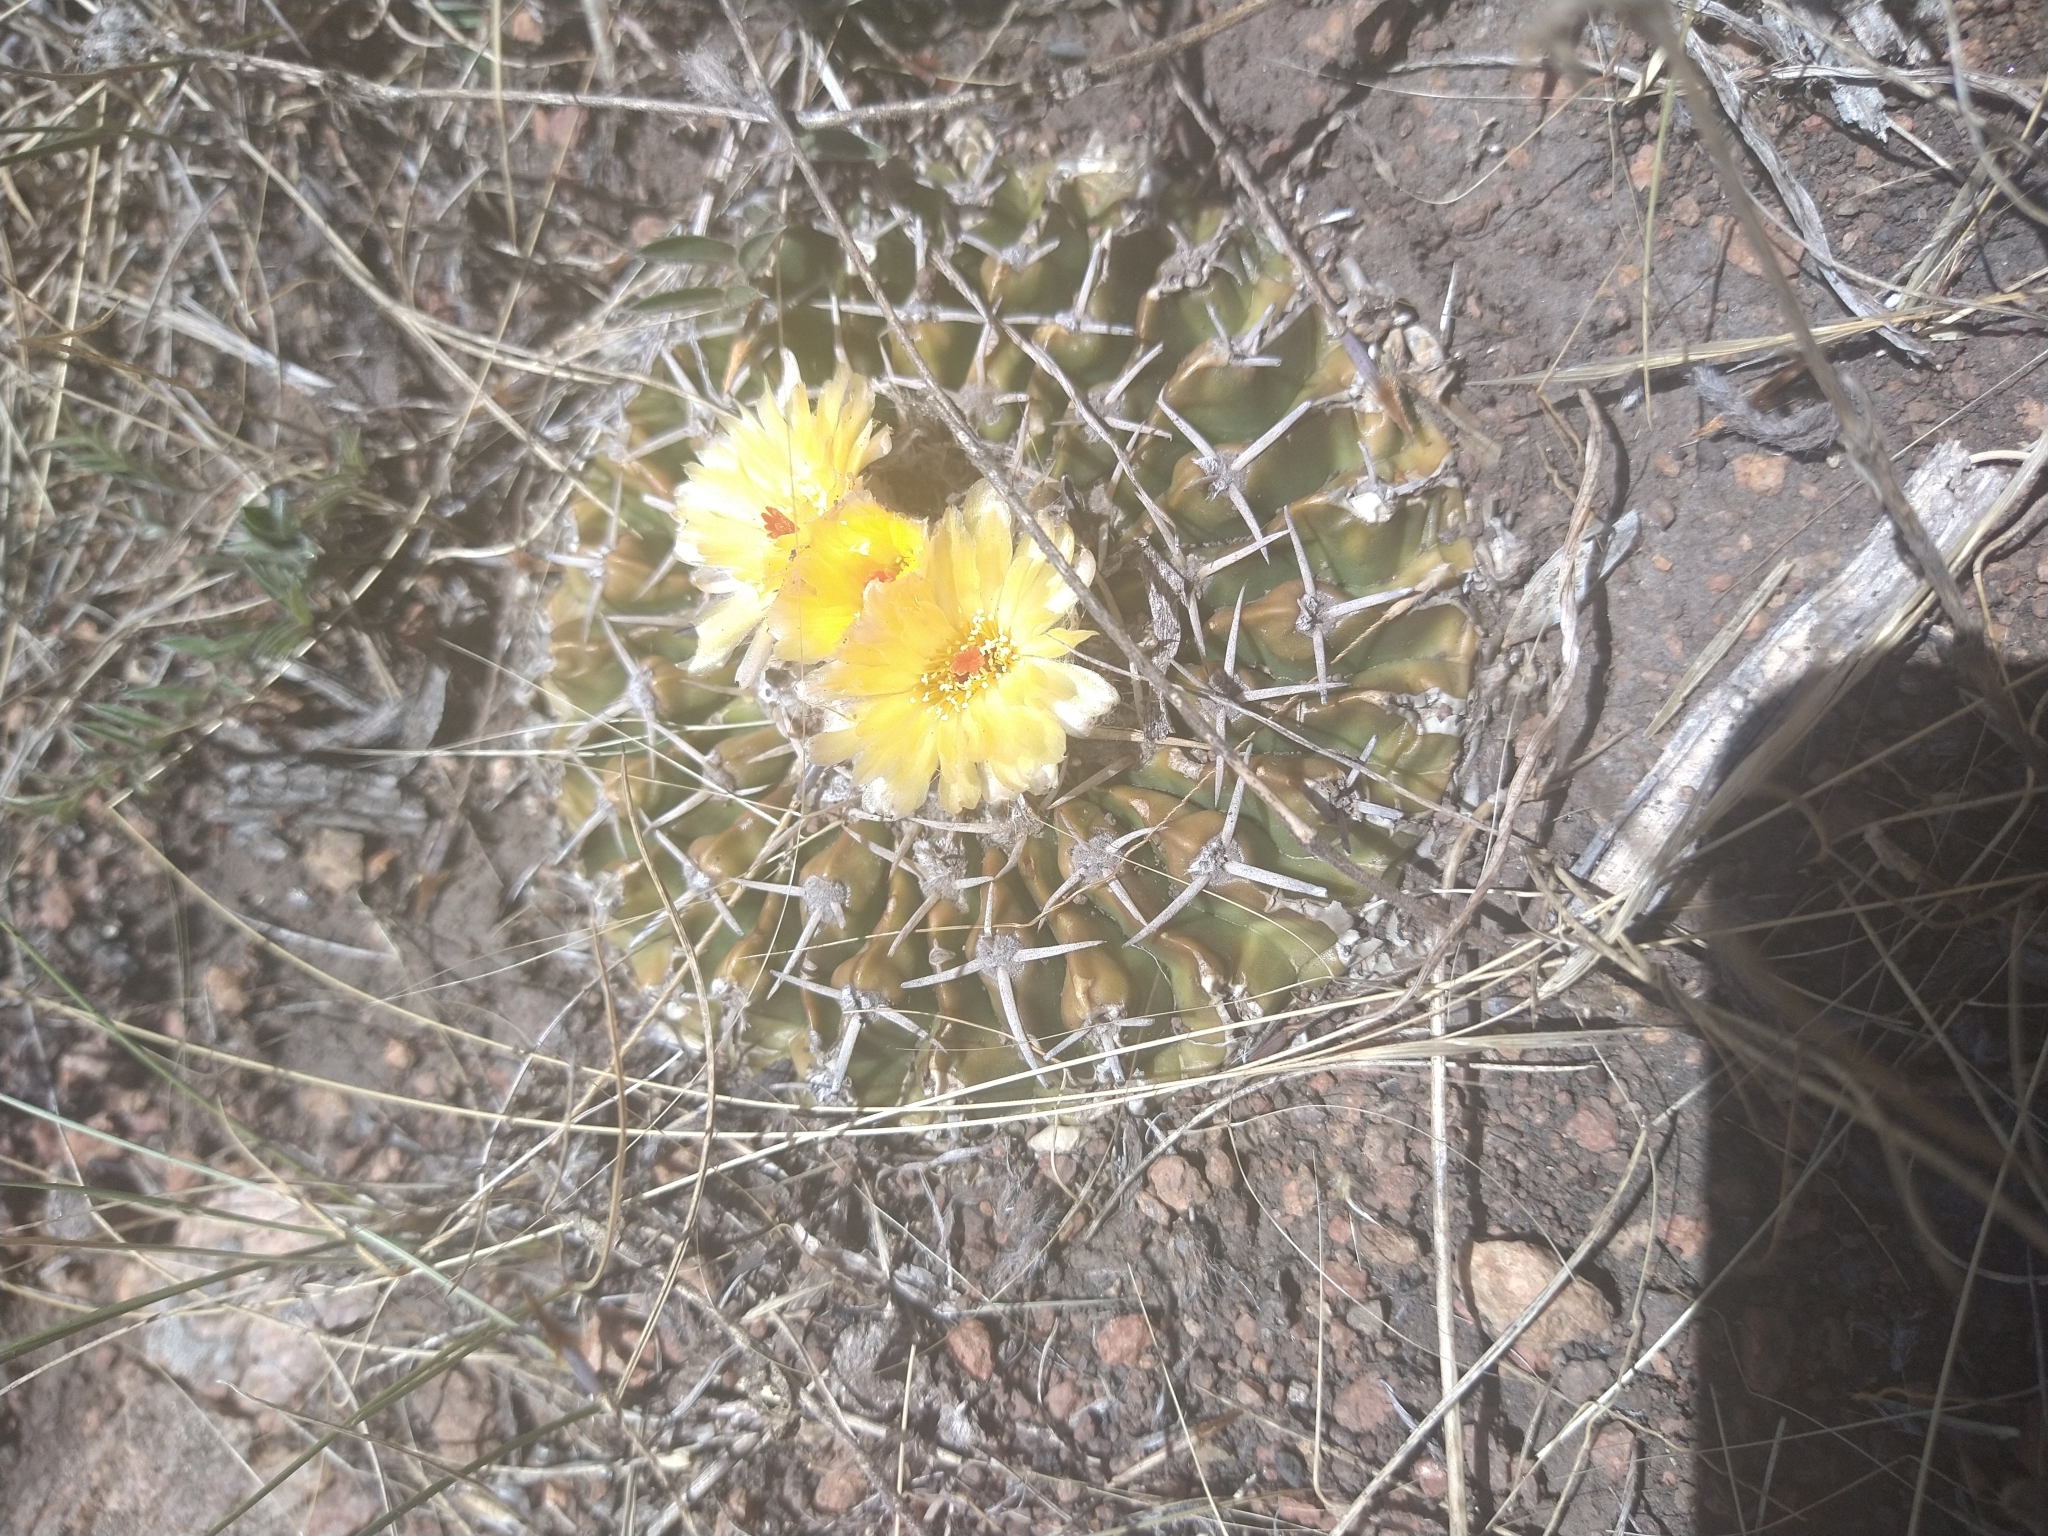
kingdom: Plantae
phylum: Tracheophyta
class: Magnoliopsida
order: Caryophyllales
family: Cactaceae
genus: Parodia
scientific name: Parodia erinacea
